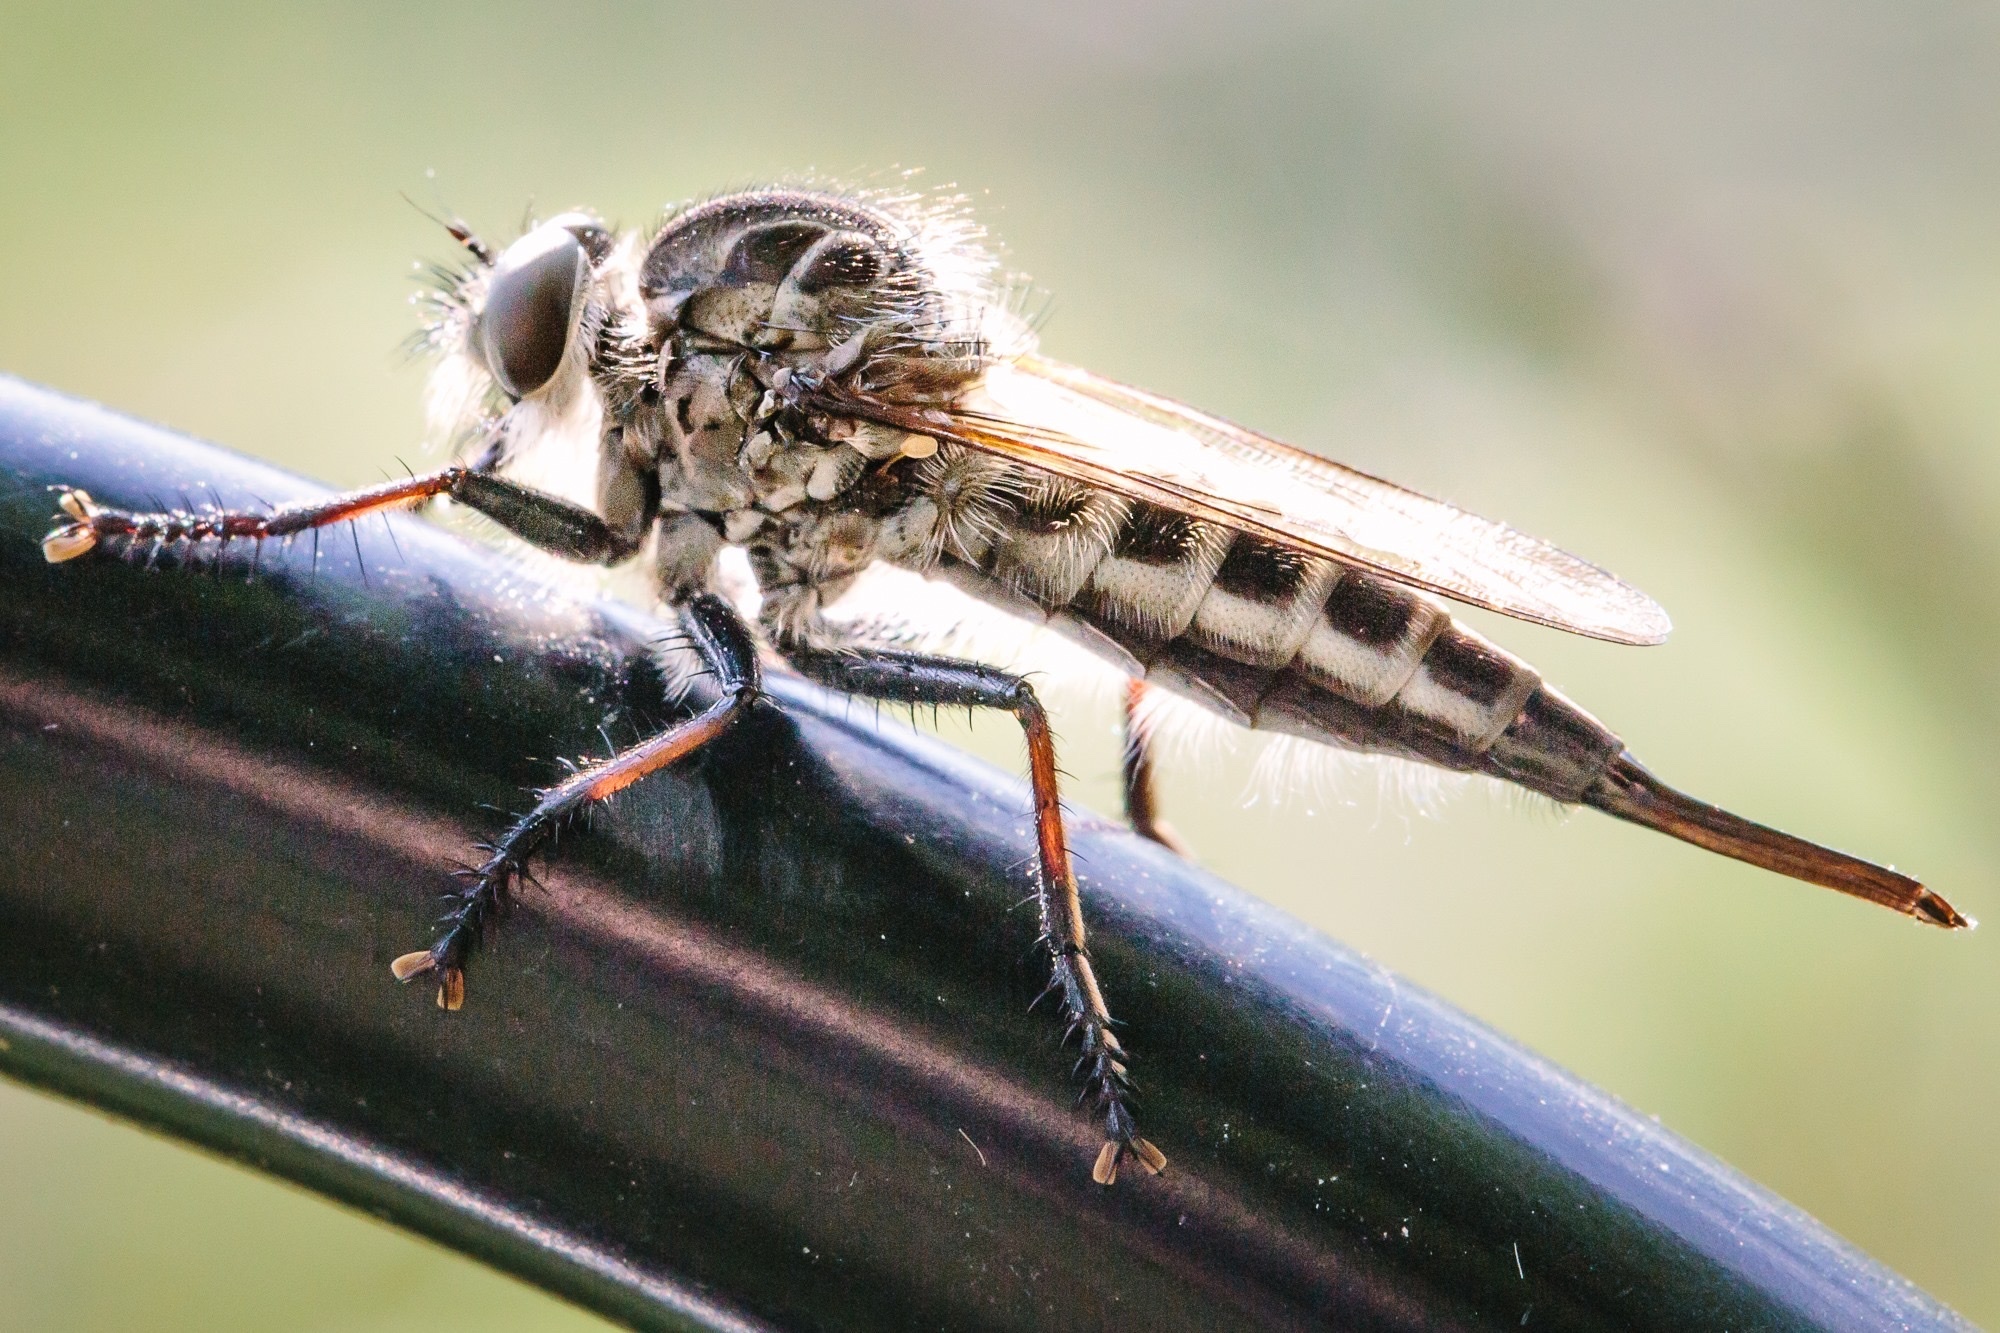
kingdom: Animalia
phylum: Arthropoda
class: Insecta
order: Diptera
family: Asilidae
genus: Efferia
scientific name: Efferia aestuans
